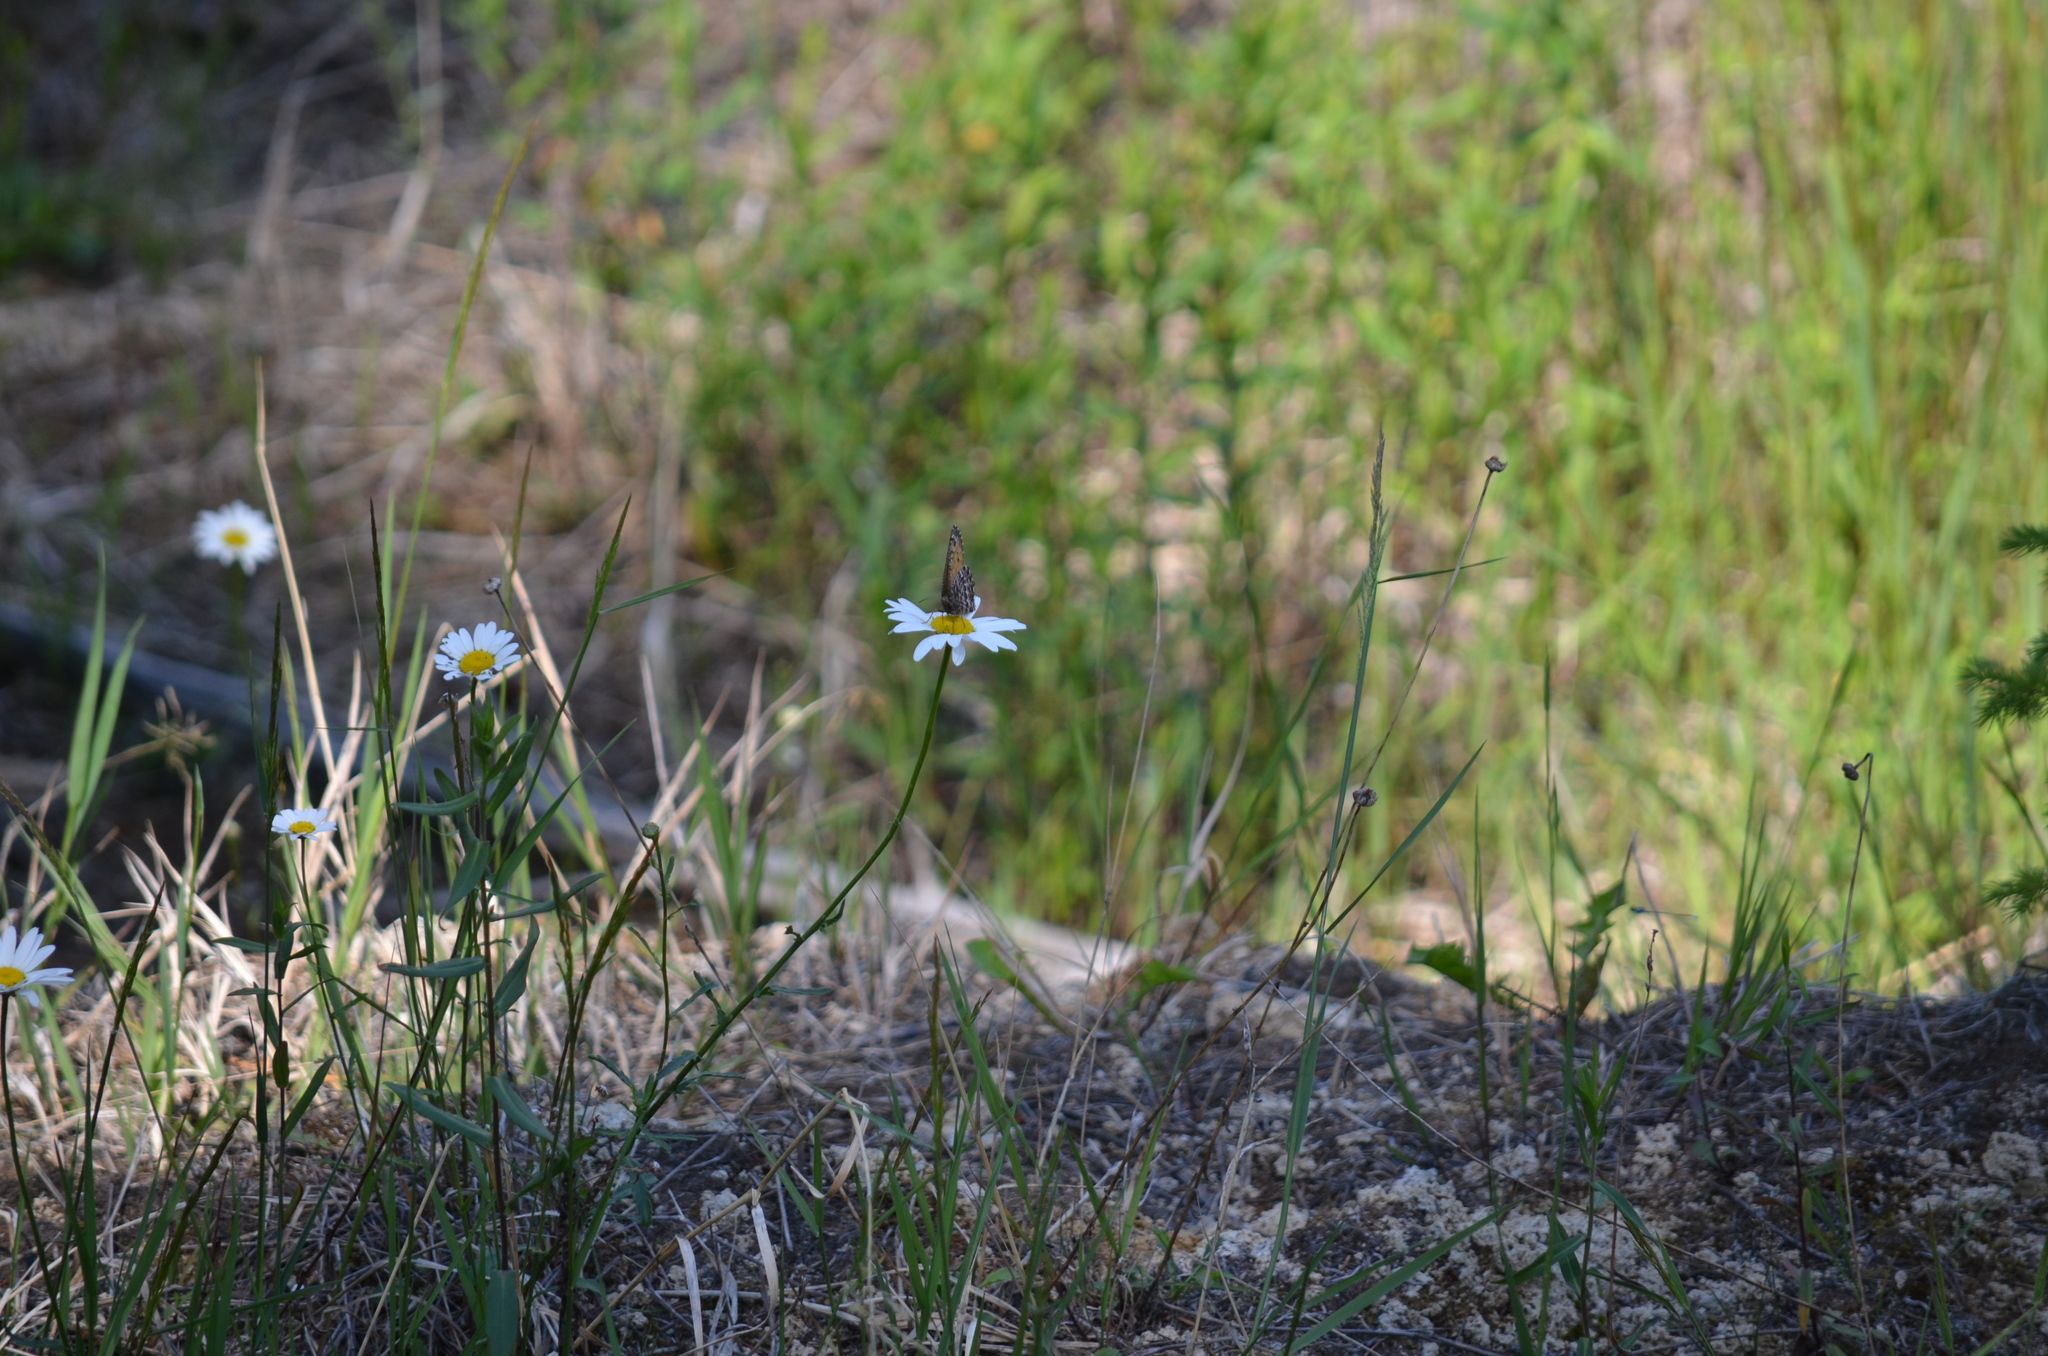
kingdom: Animalia
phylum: Arthropoda
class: Insecta
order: Lepidoptera
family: Nymphalidae
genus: Oeneis
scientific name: Oeneis chryxus
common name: Chryxus arctic
